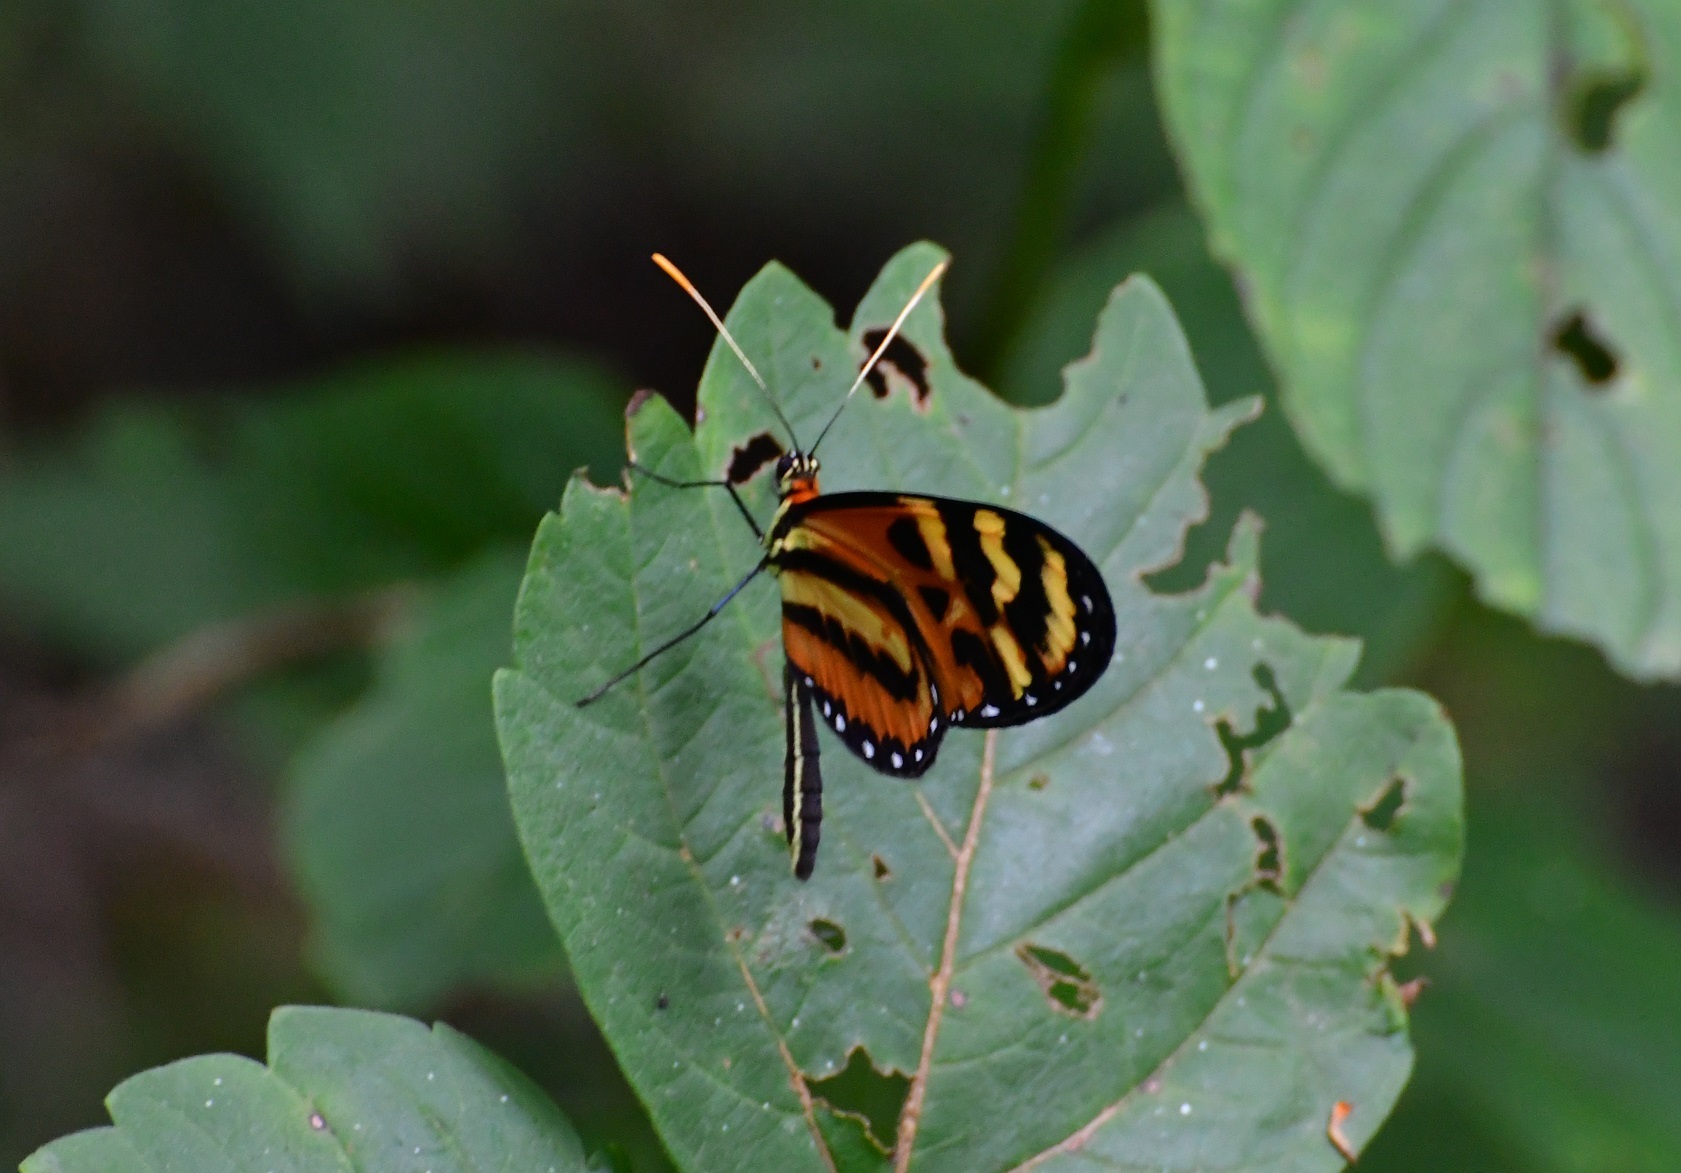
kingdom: Animalia
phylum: Arthropoda
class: Insecta
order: Lepidoptera
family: Nymphalidae
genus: Mechanitis
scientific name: Mechanitis lysimnia
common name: Lysimnia tigerwing
